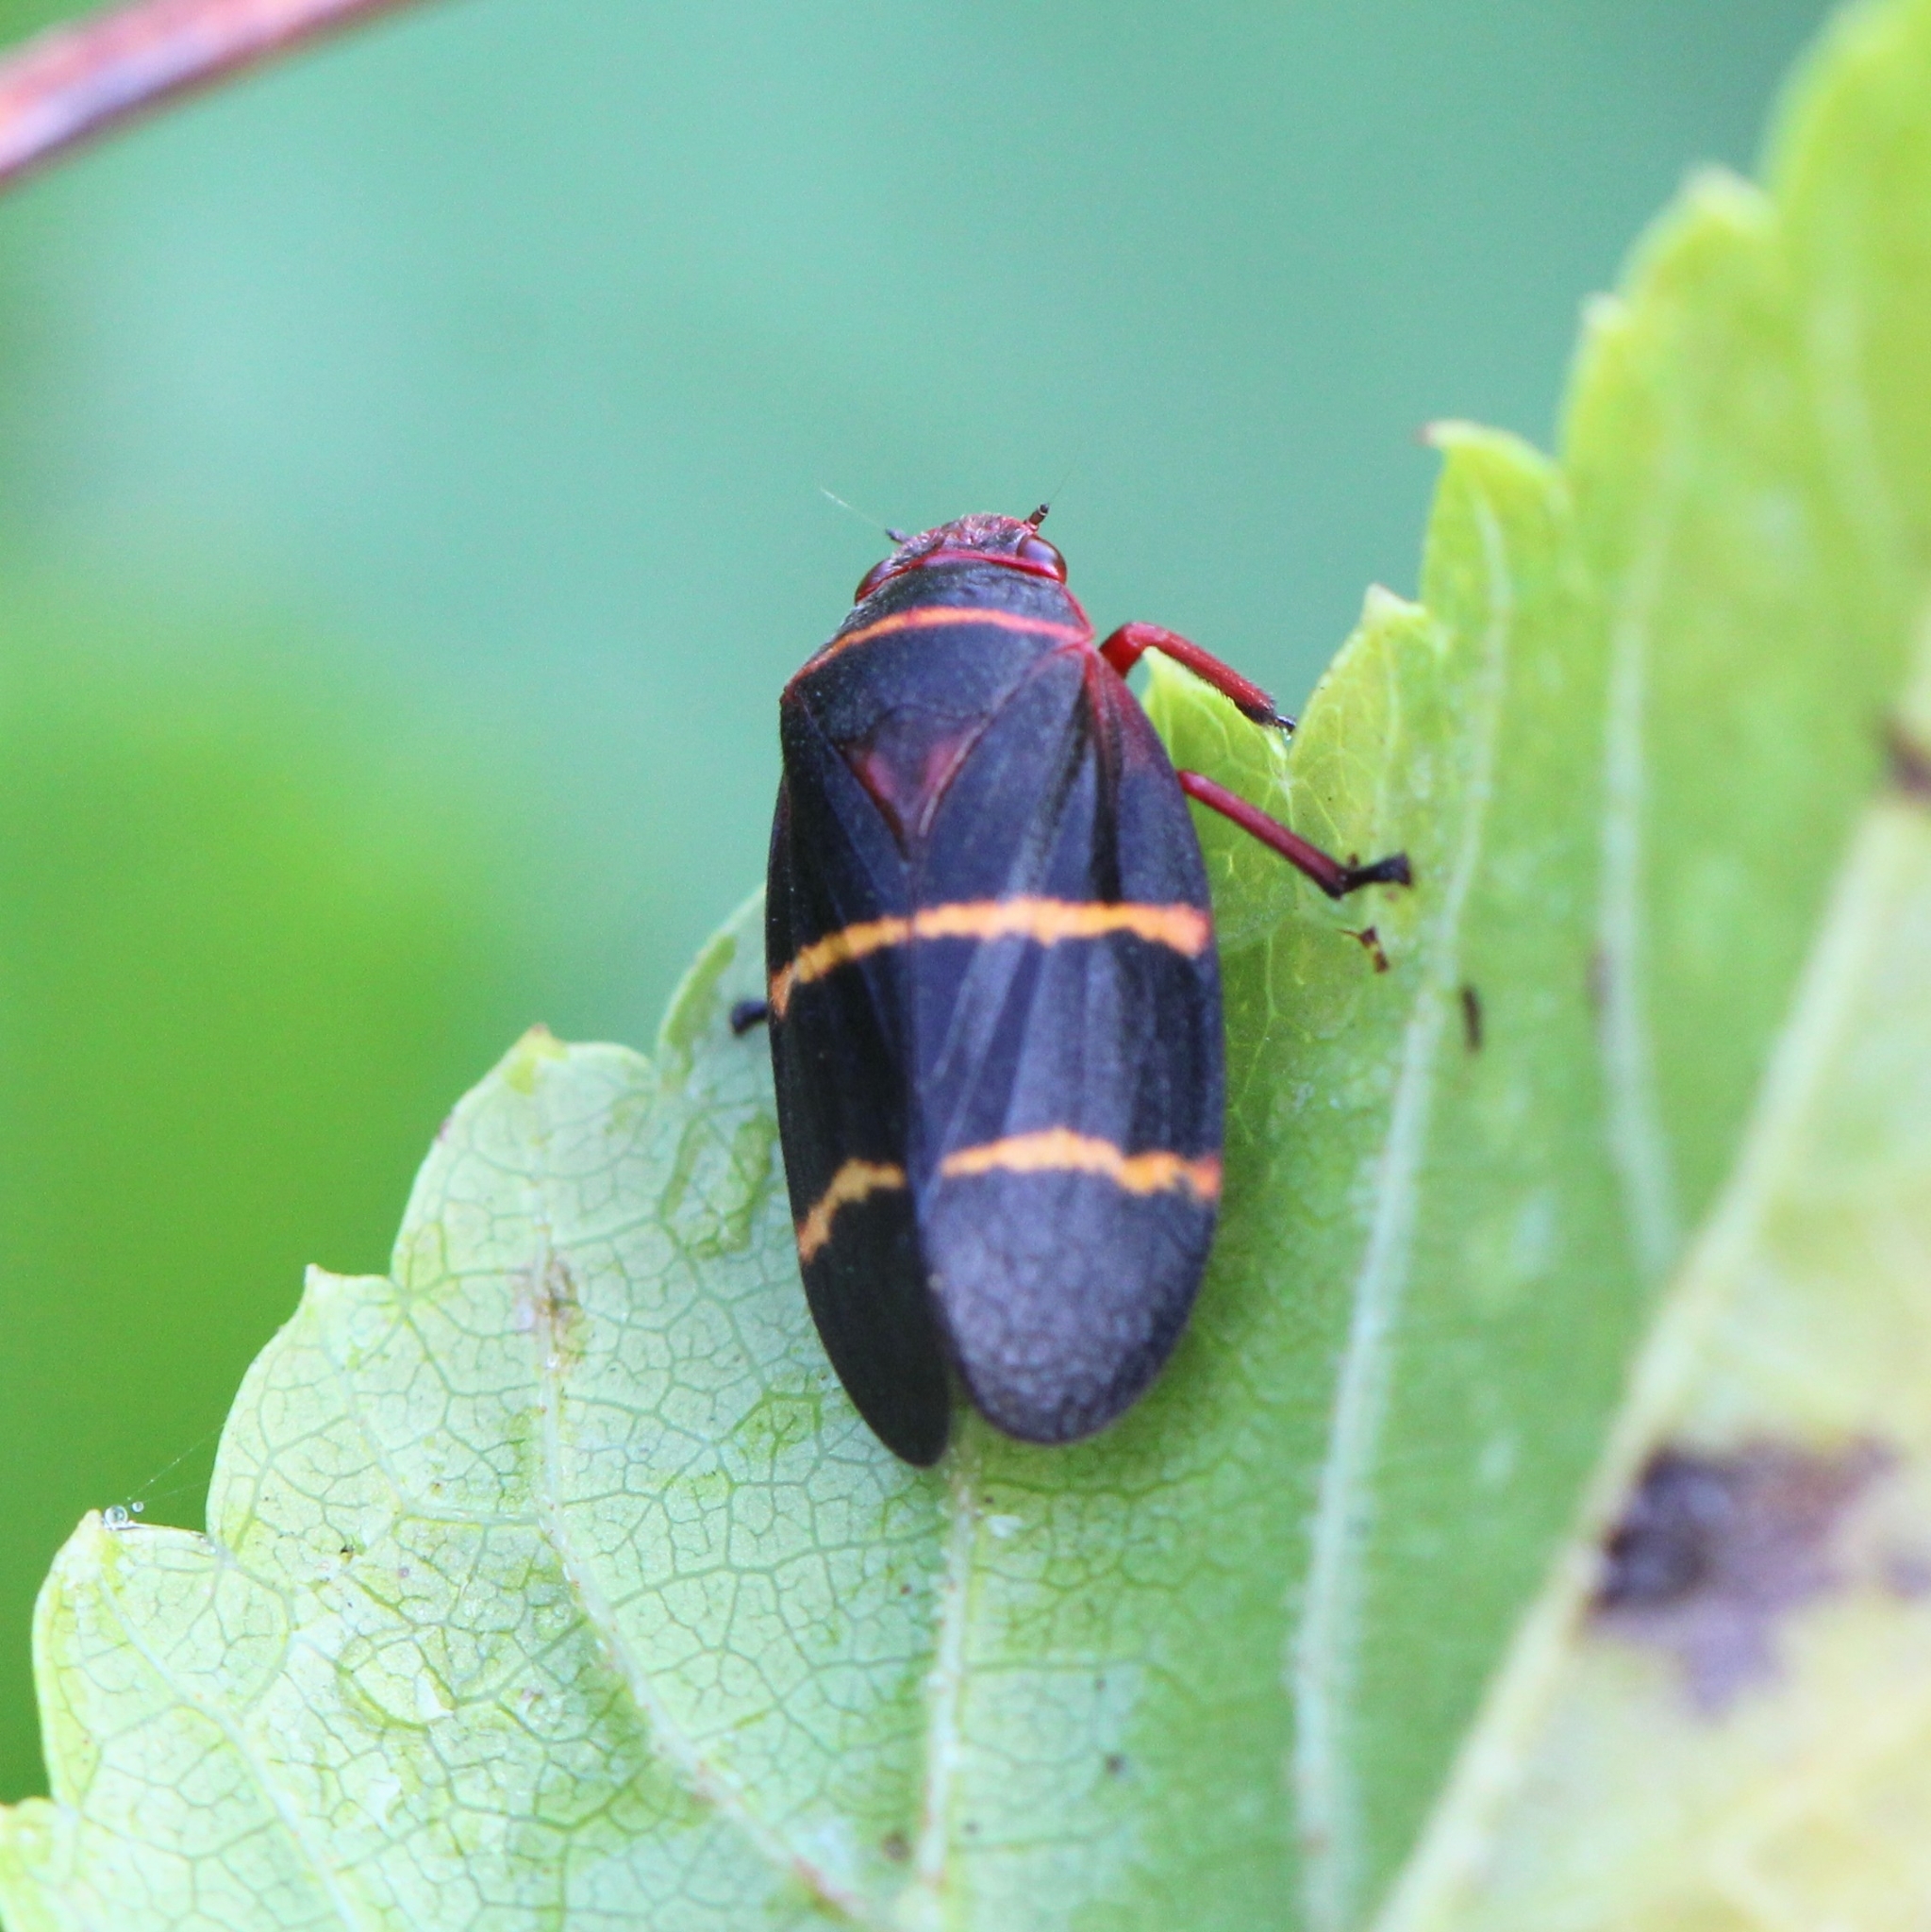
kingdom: Animalia
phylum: Arthropoda
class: Insecta
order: Hemiptera
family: Cercopidae
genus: Prosapia
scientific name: Prosapia bicincta
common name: Twolined spittlebug
